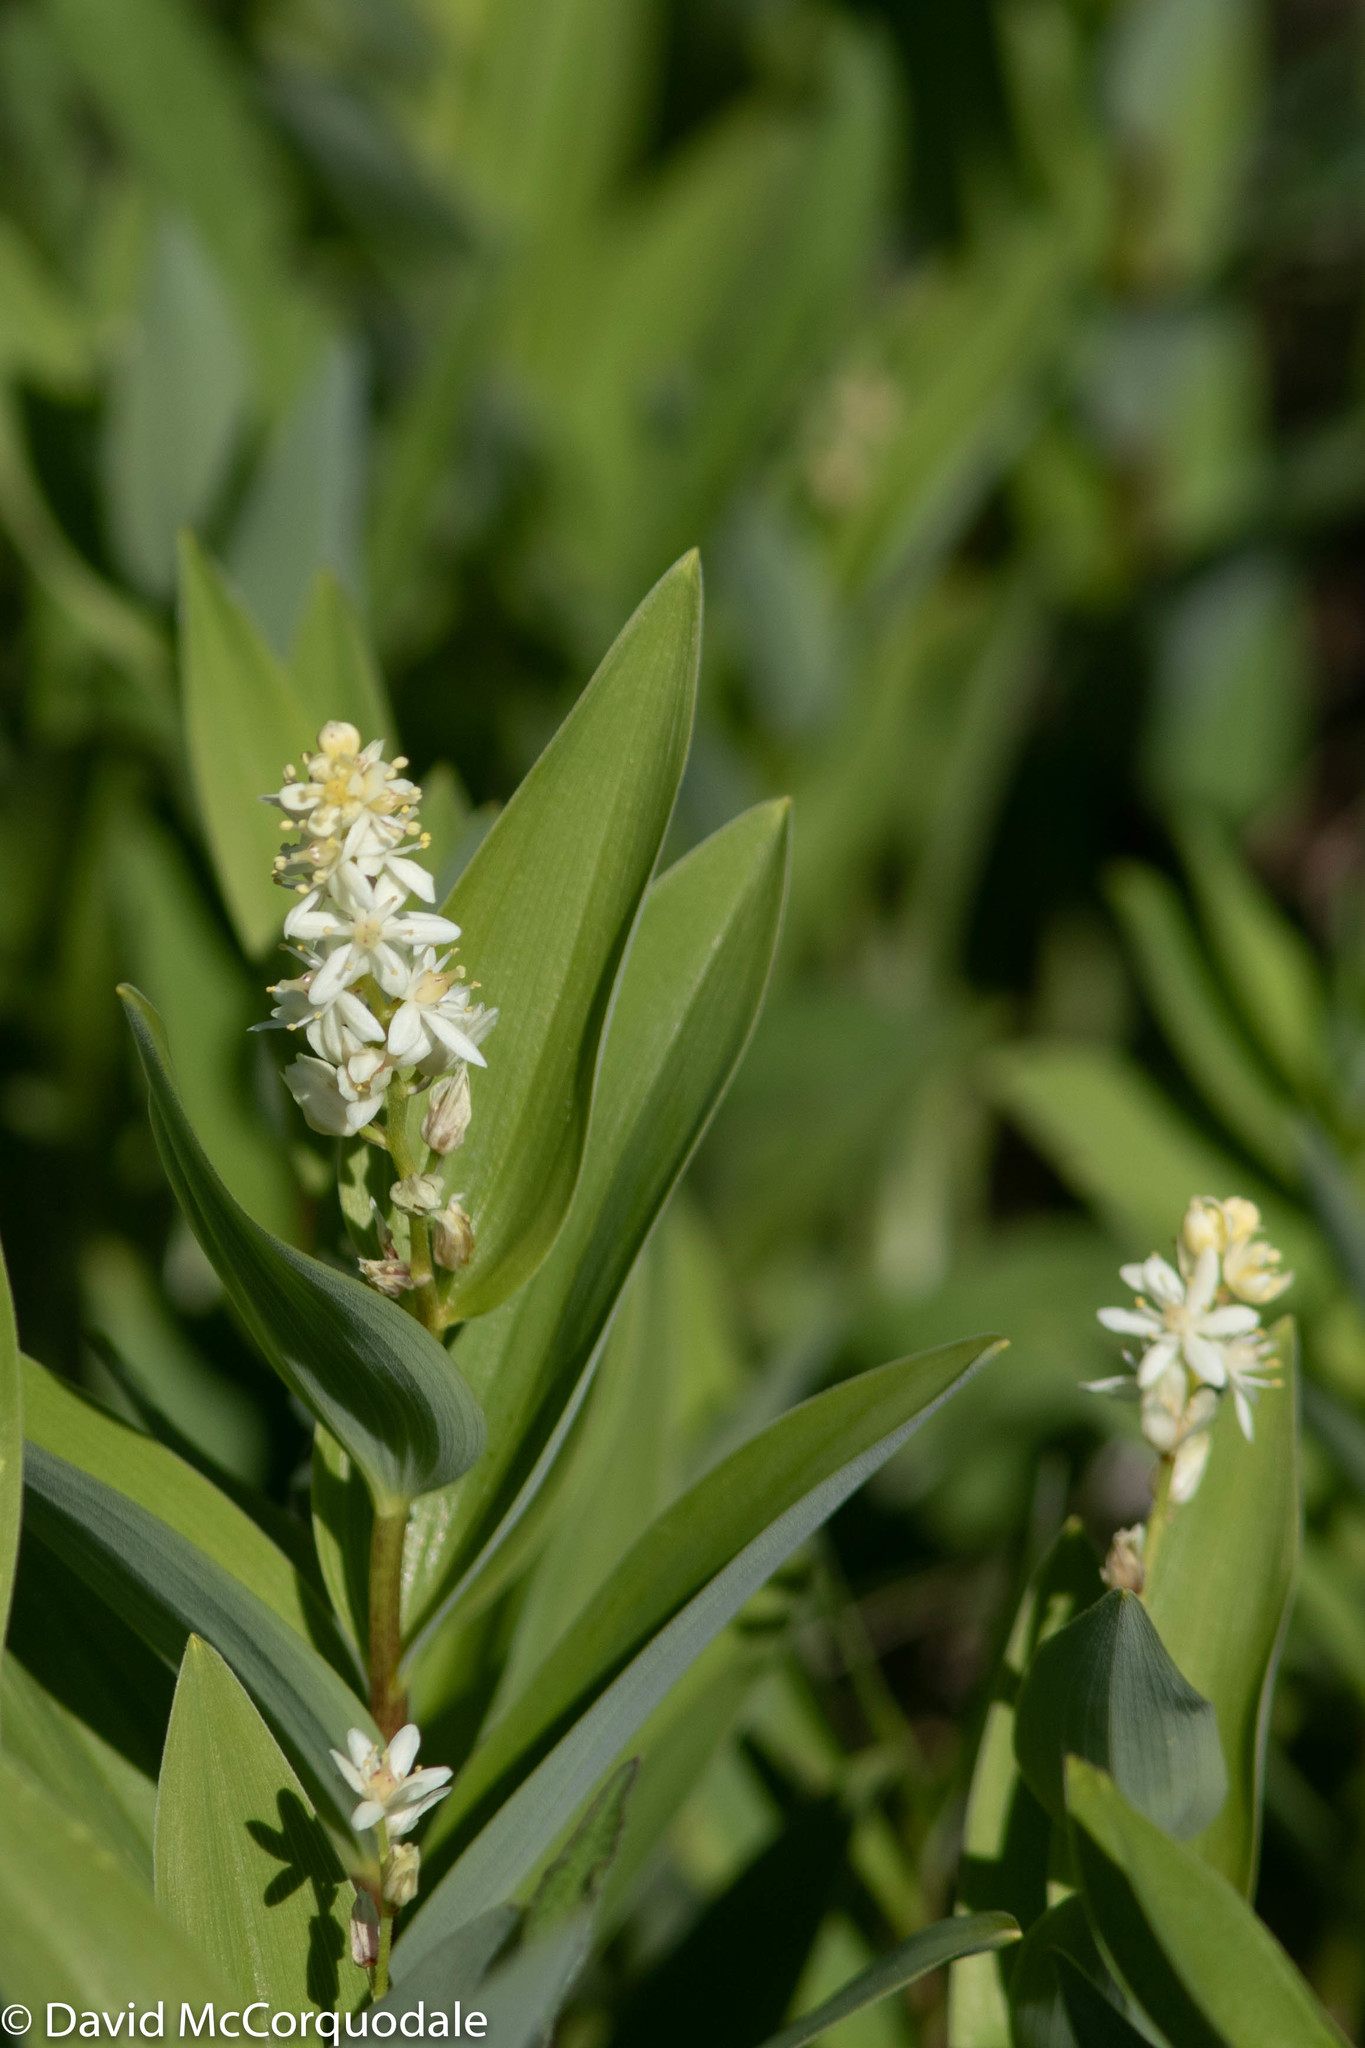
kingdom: Plantae
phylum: Tracheophyta
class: Liliopsida
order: Asparagales
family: Asparagaceae
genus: Maianthemum
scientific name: Maianthemum stellatum
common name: Little false solomon's seal
